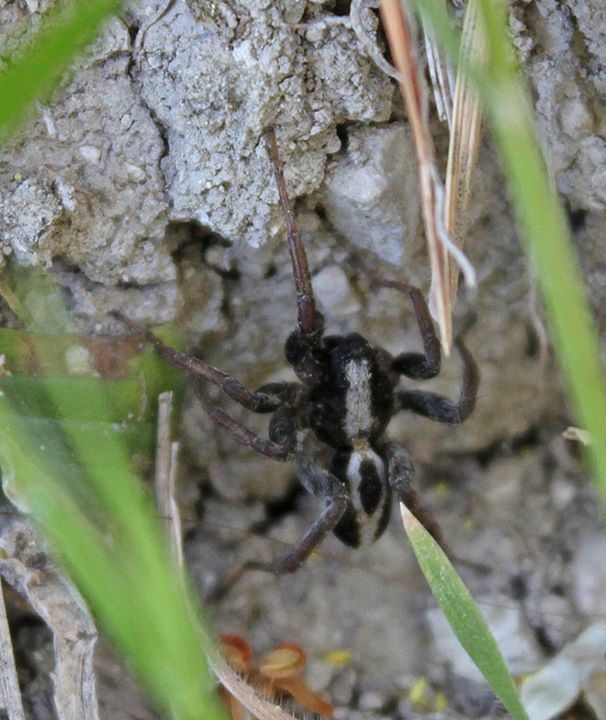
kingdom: Animalia
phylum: Arthropoda
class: Arachnida
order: Araneae
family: Lycosidae
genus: Alopecosa
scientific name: Alopecosa albofasciata
